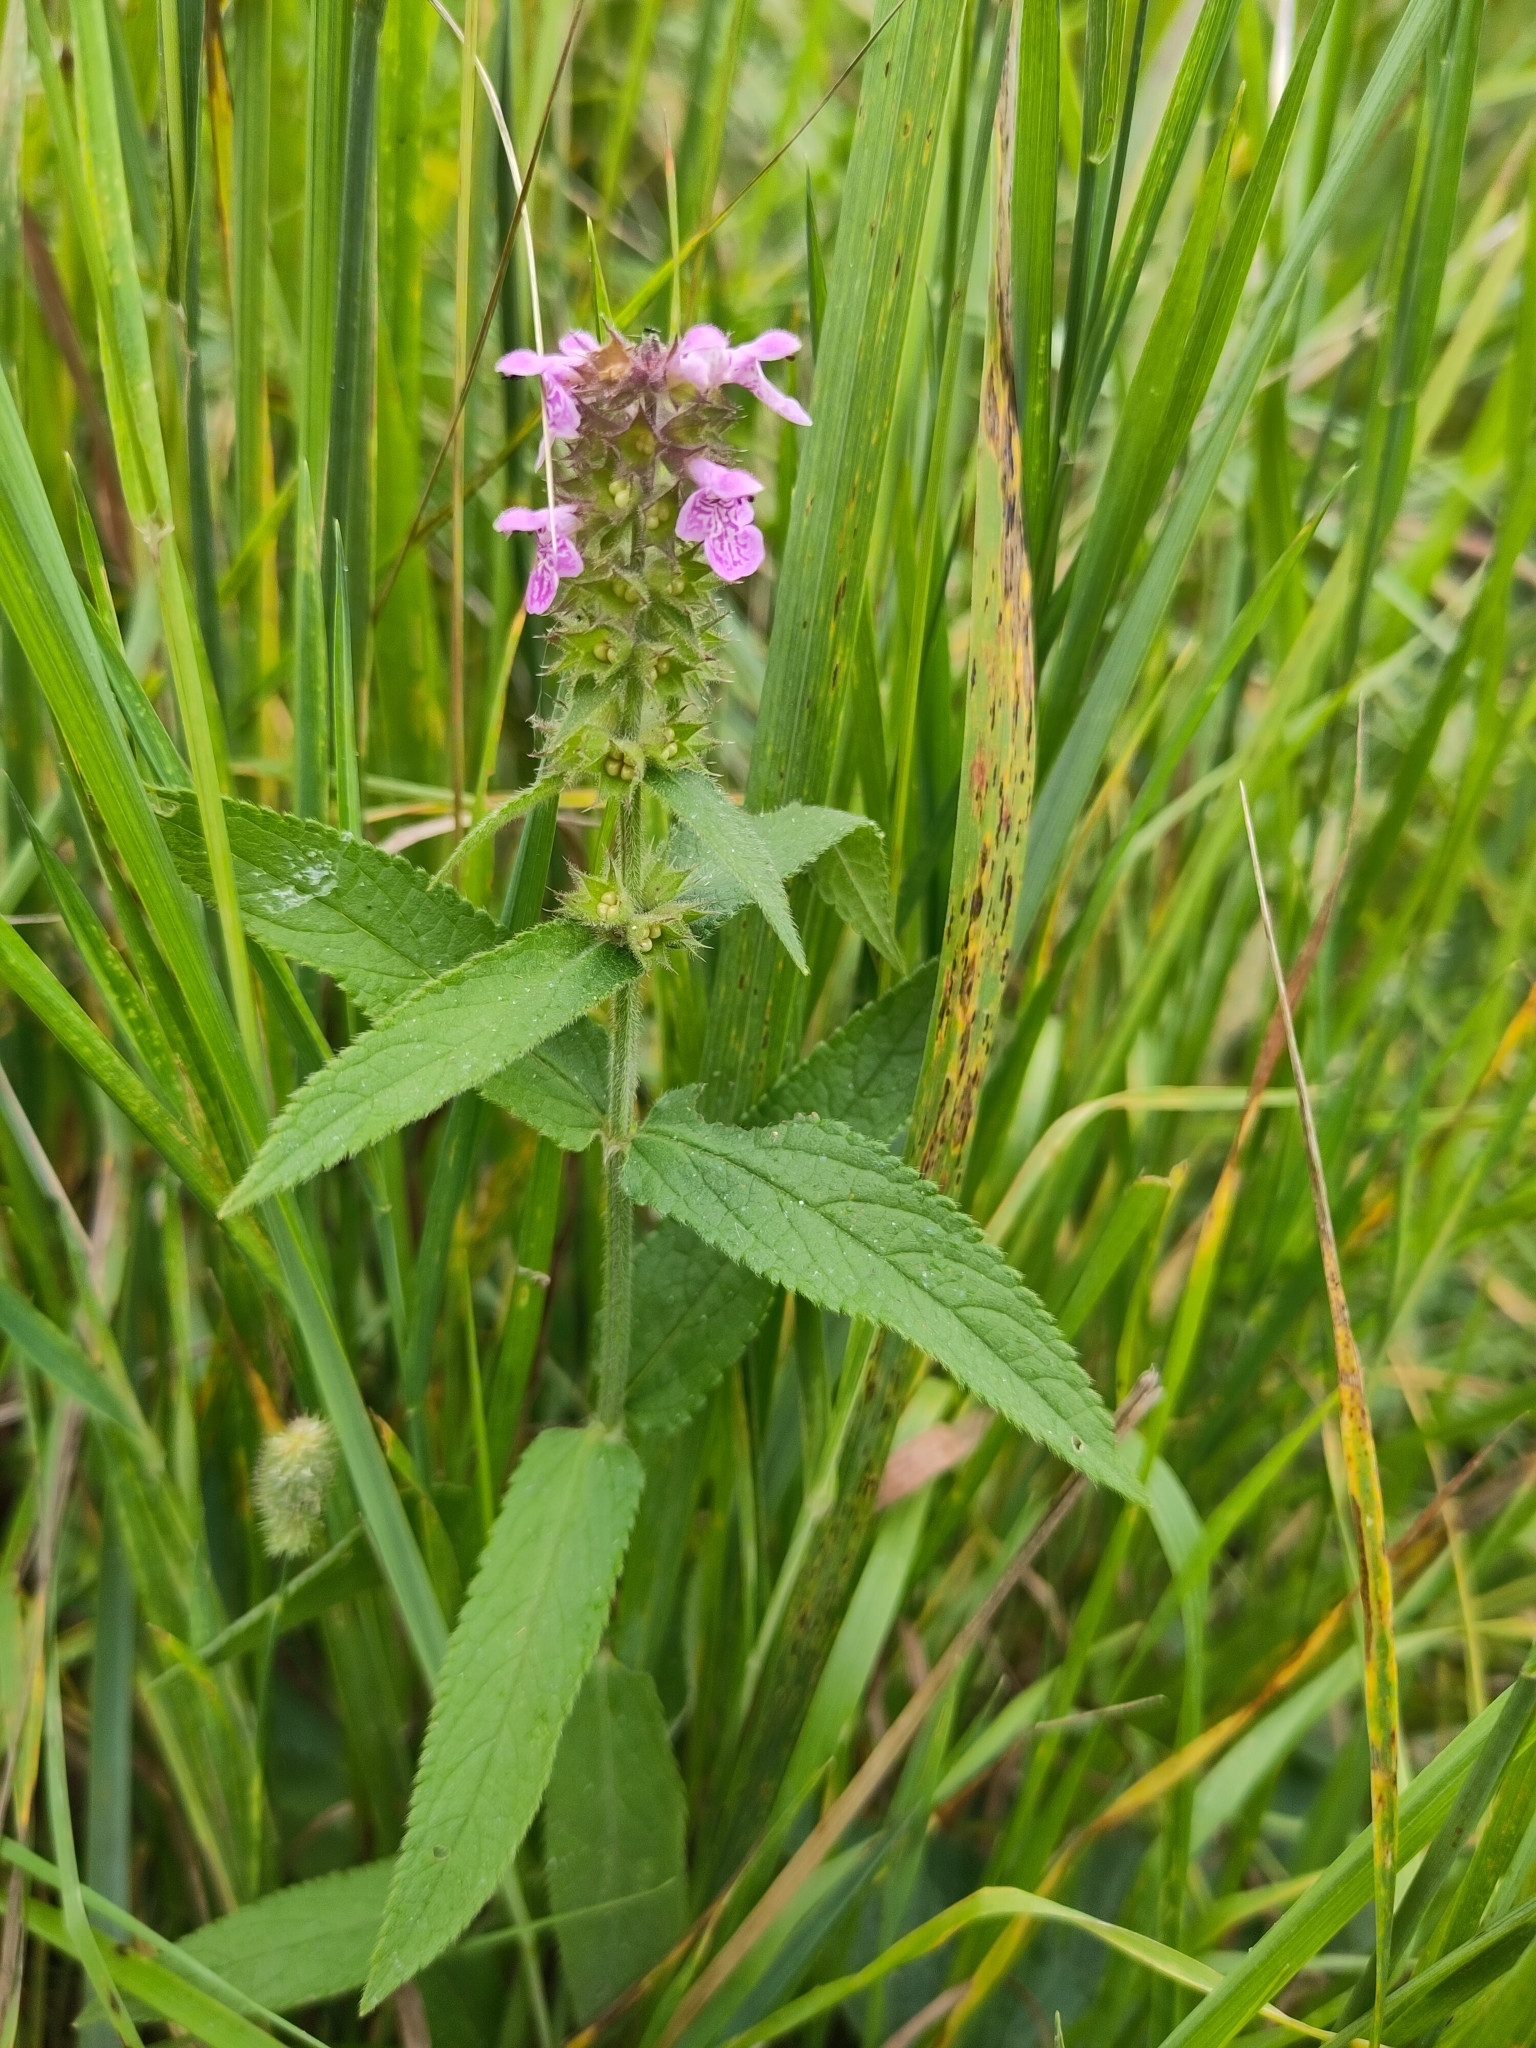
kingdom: Plantae
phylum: Tracheophyta
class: Magnoliopsida
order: Lamiales
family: Lamiaceae
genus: Stachys
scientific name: Stachys palustris
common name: Marsh woundwort
